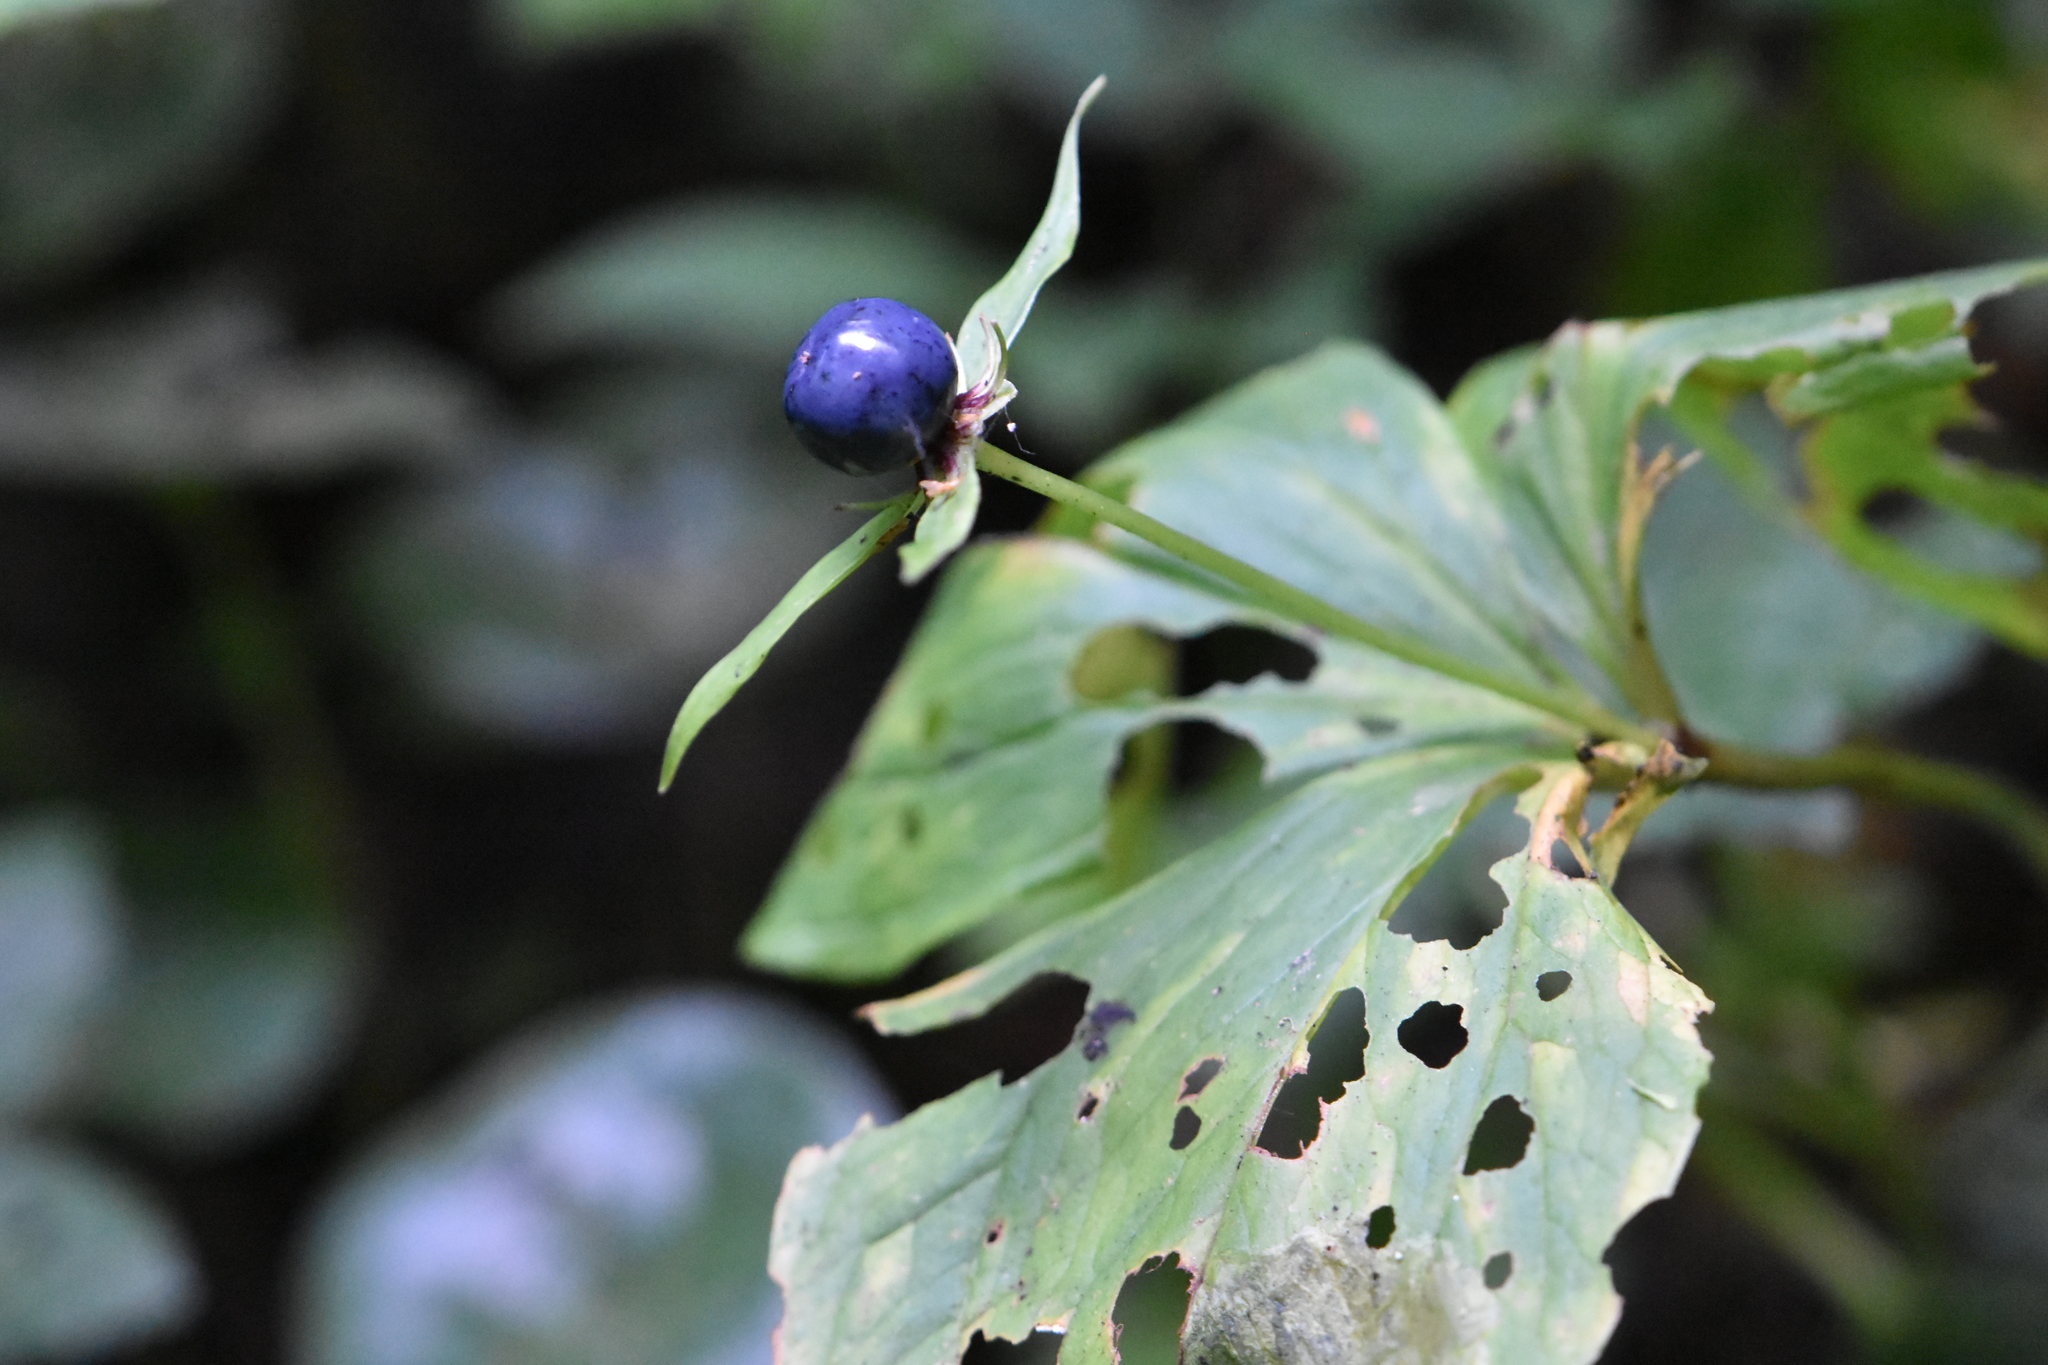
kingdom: Plantae
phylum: Tracheophyta
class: Liliopsida
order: Liliales
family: Melanthiaceae
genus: Paris
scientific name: Paris quadrifolia
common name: Herb-paris
